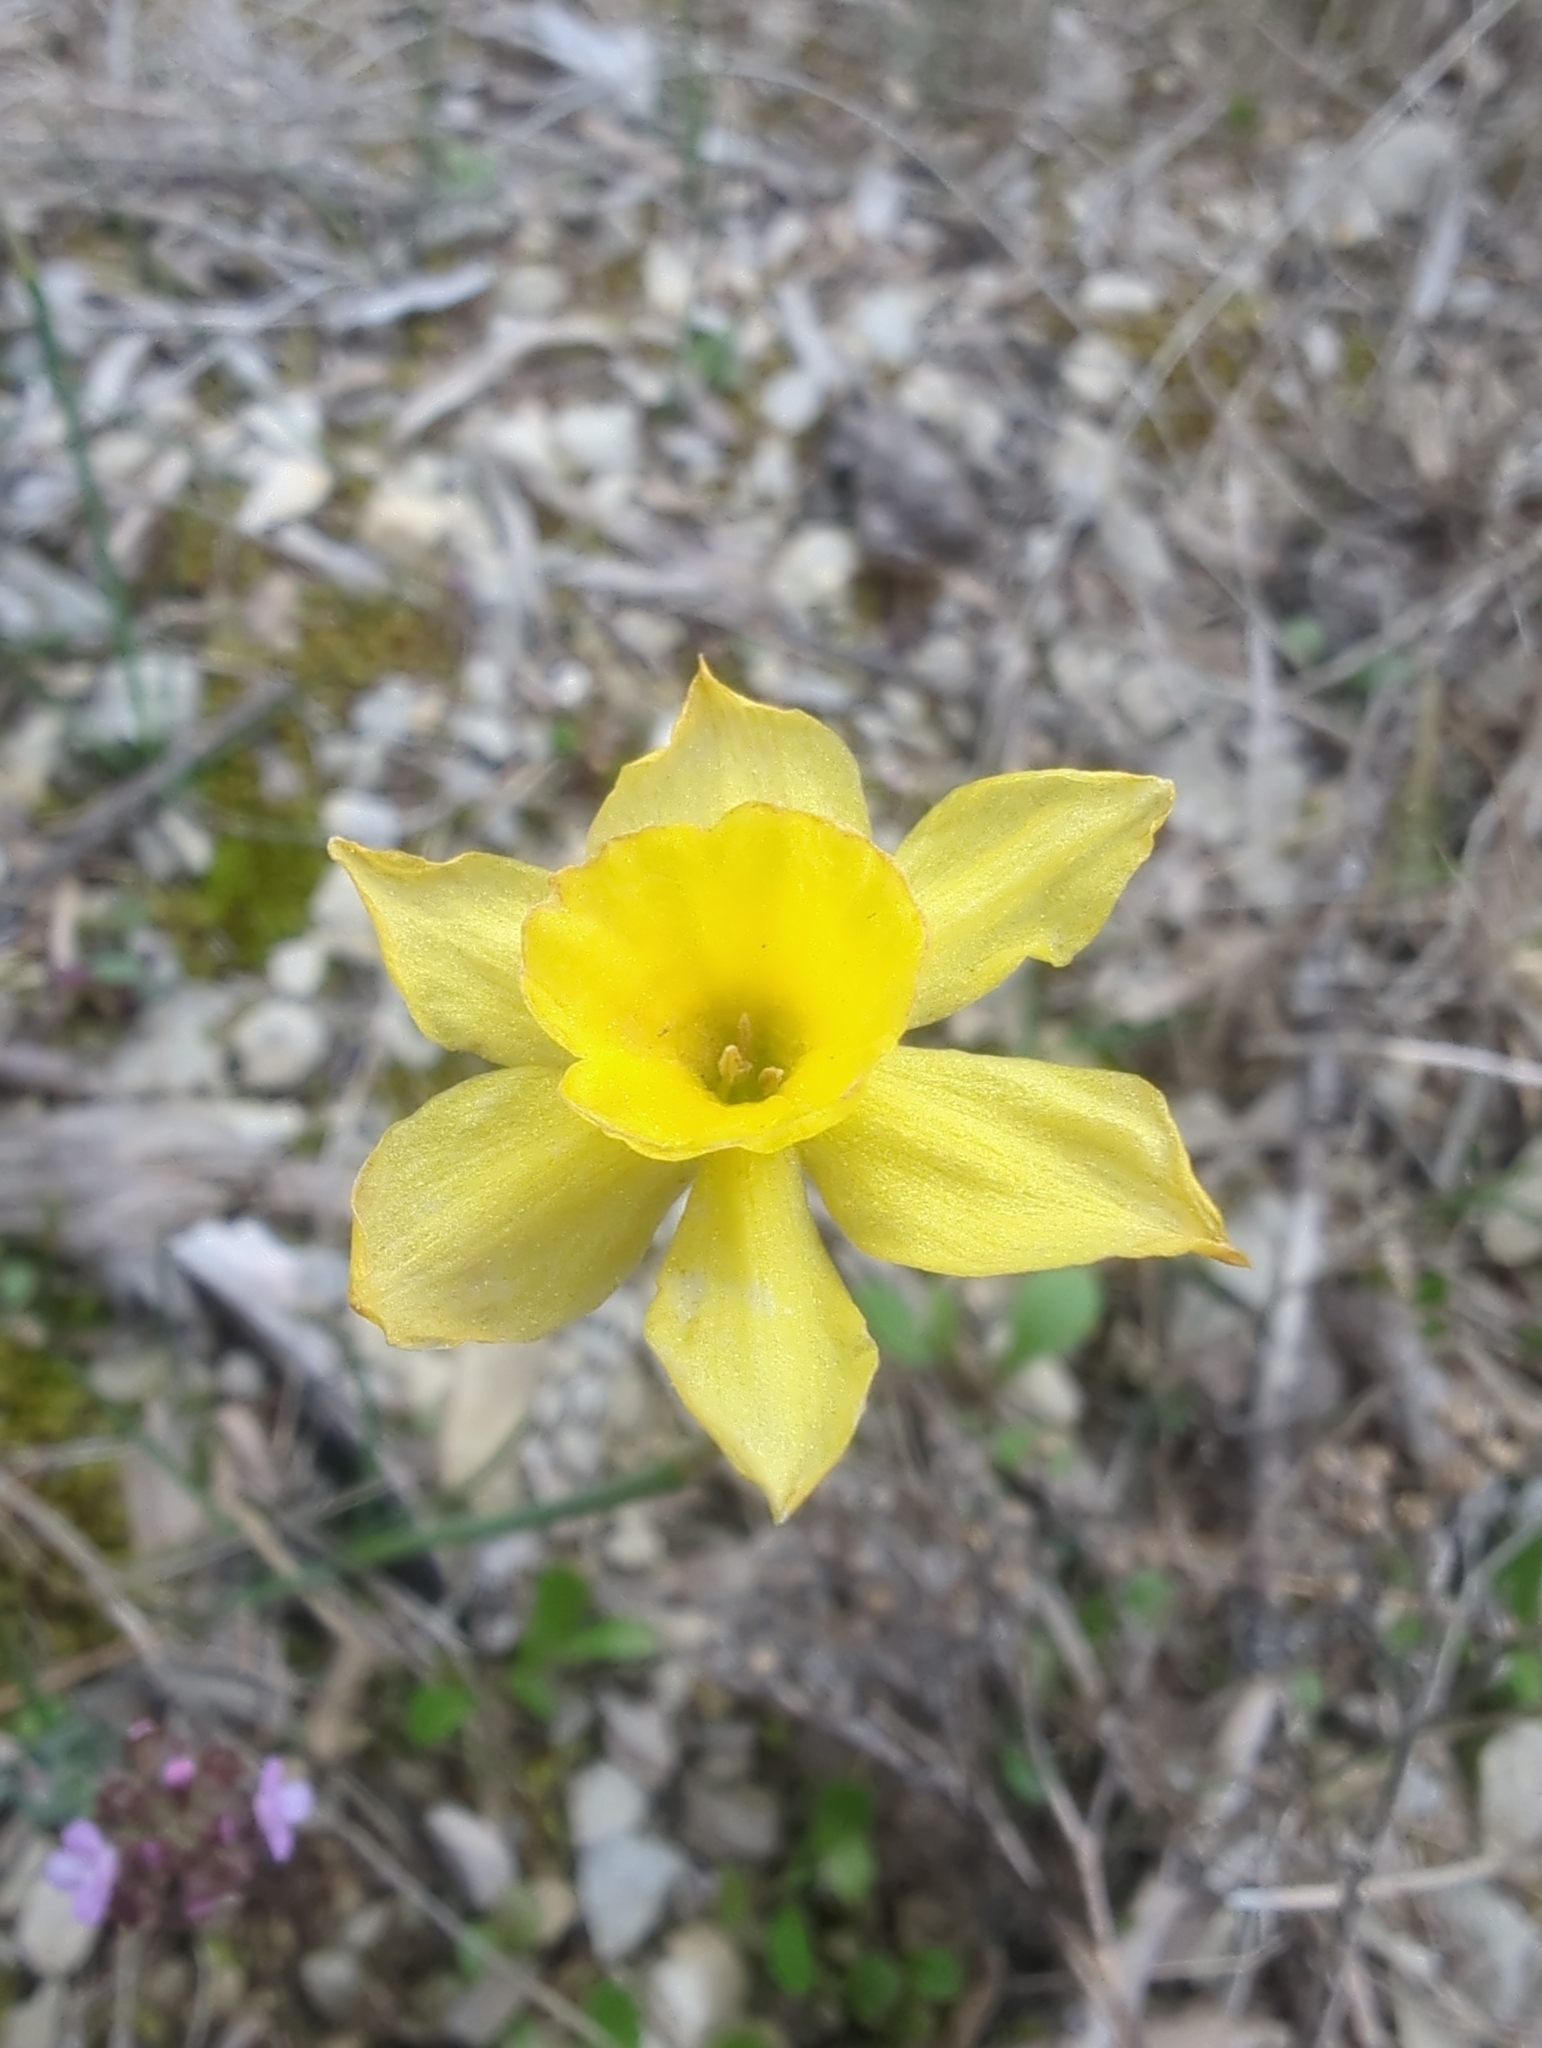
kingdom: Plantae
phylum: Tracheophyta
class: Liliopsida
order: Asparagales
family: Amaryllidaceae
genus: Narcissus
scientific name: Narcissus assoanus
